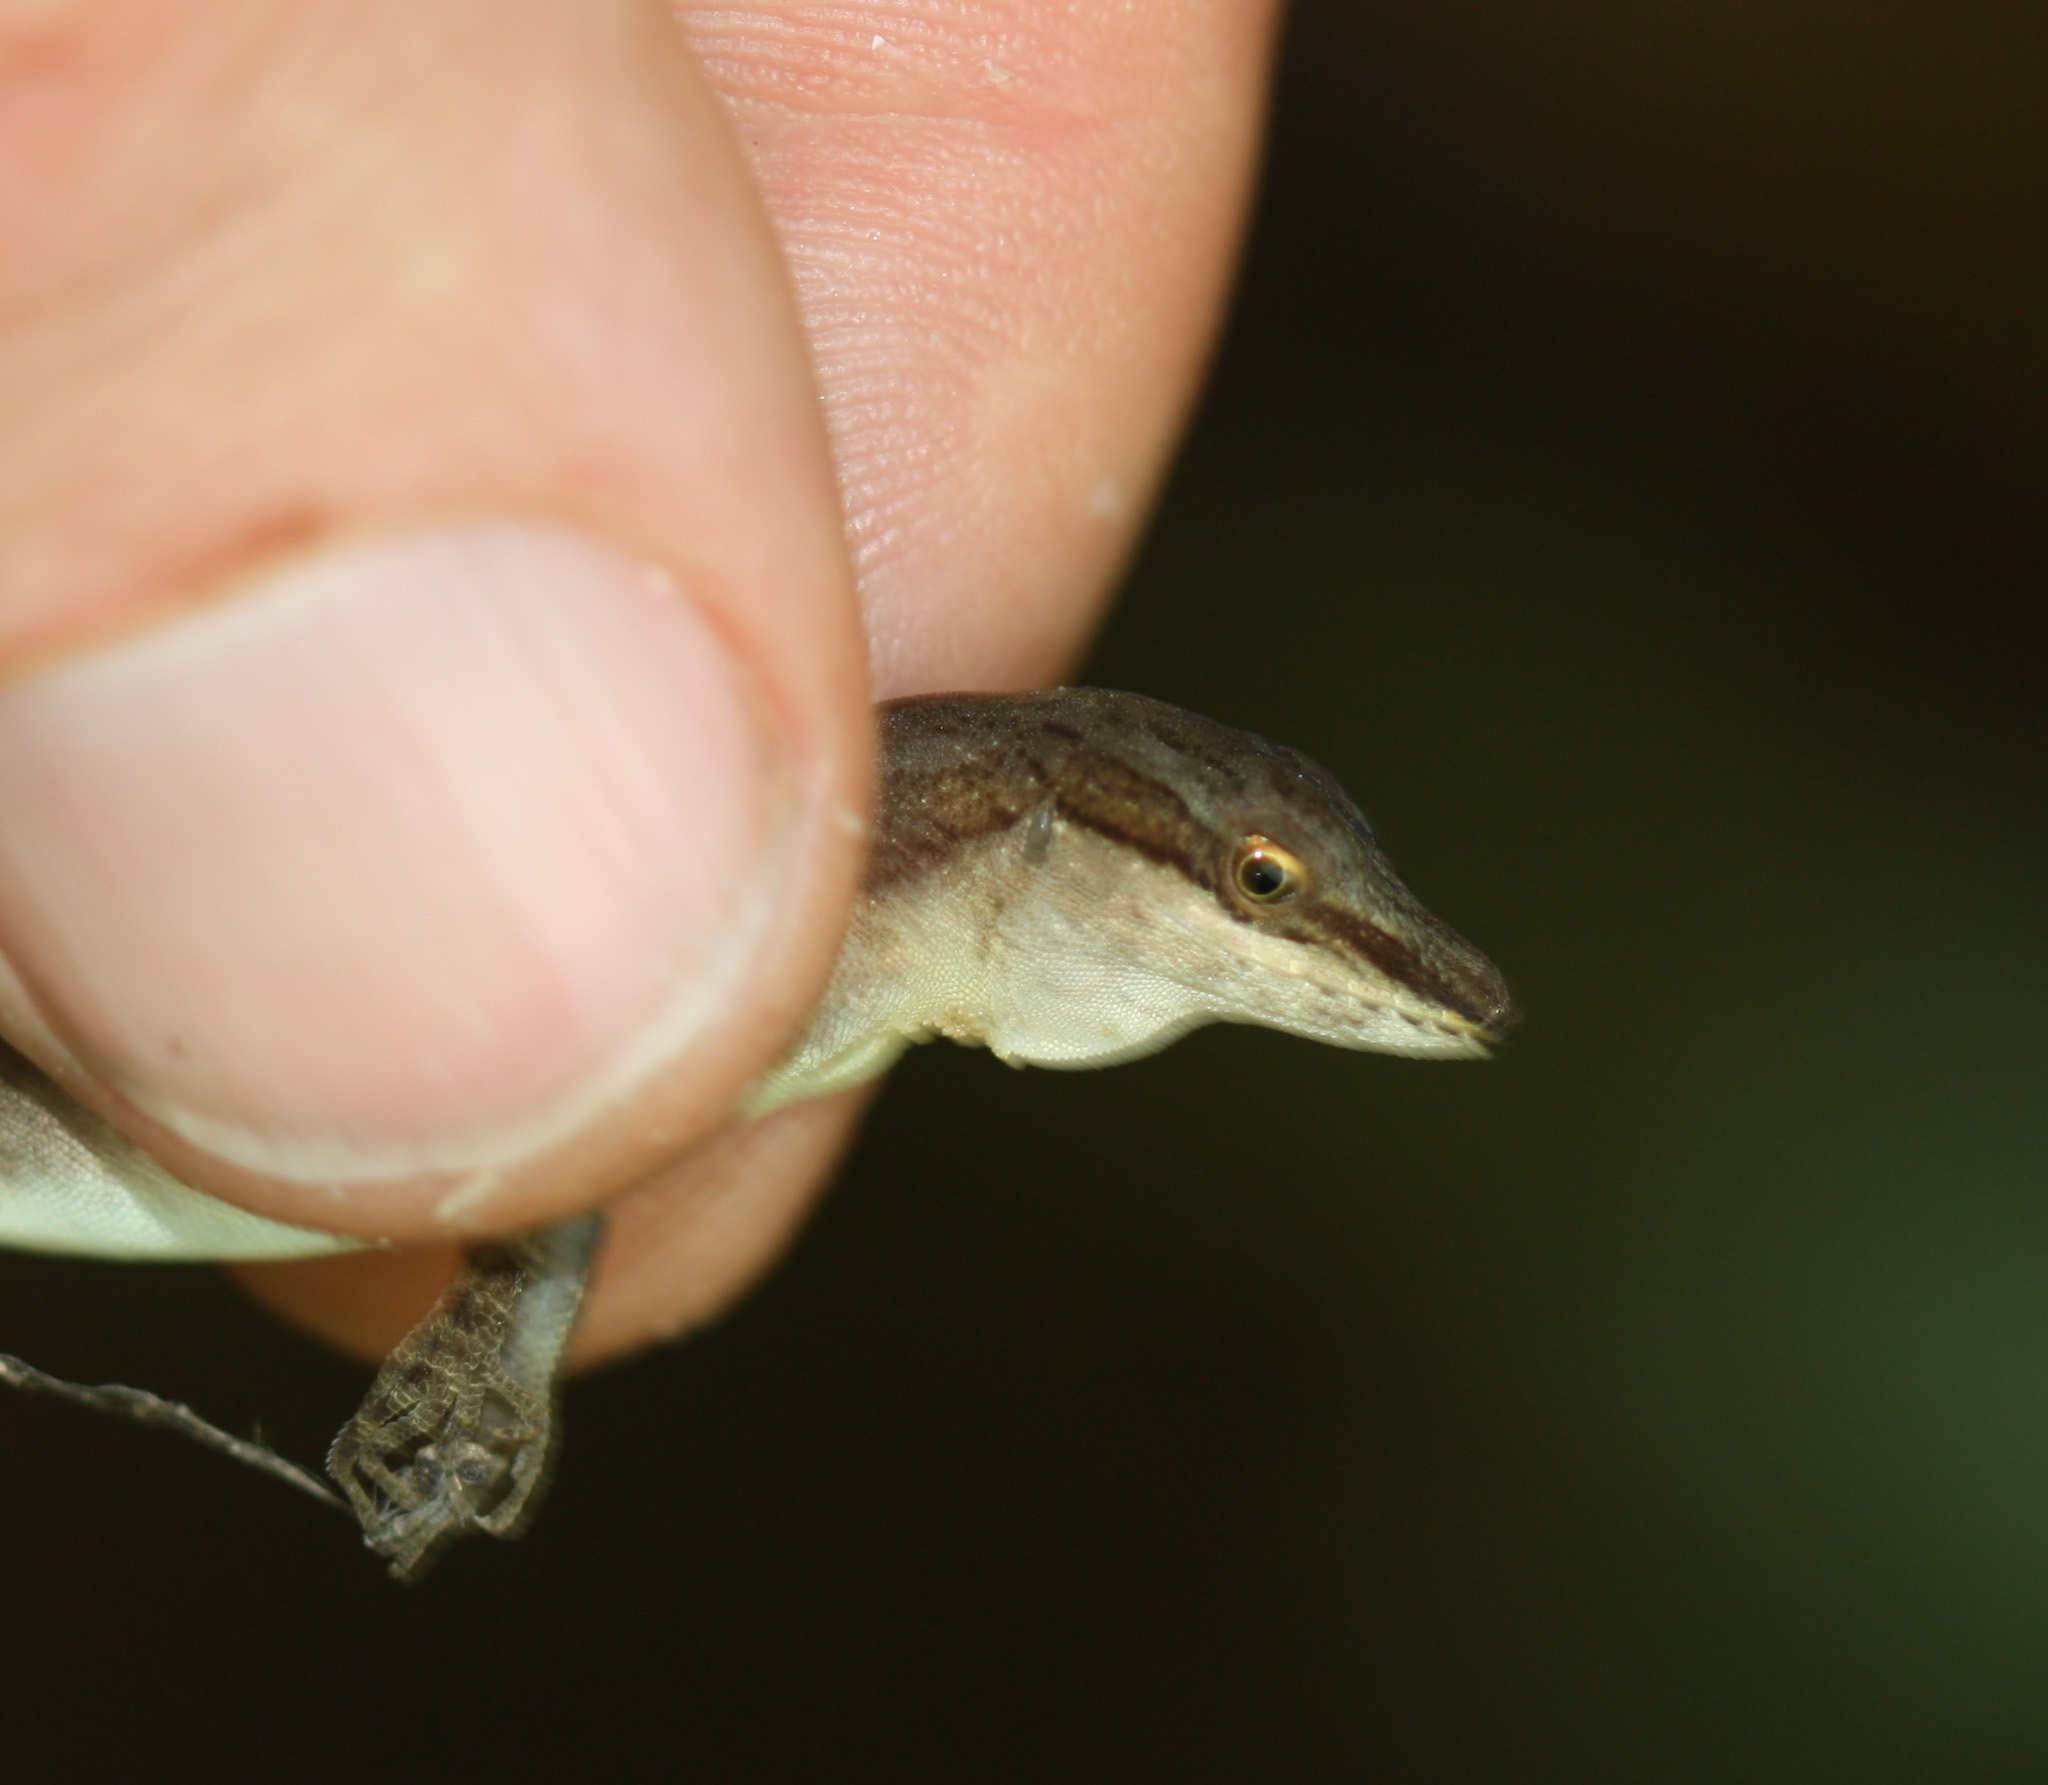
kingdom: Animalia
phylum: Chordata
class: Squamata
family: Dactyloidae
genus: Anolis
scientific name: Anolis limifrons
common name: Border anole
